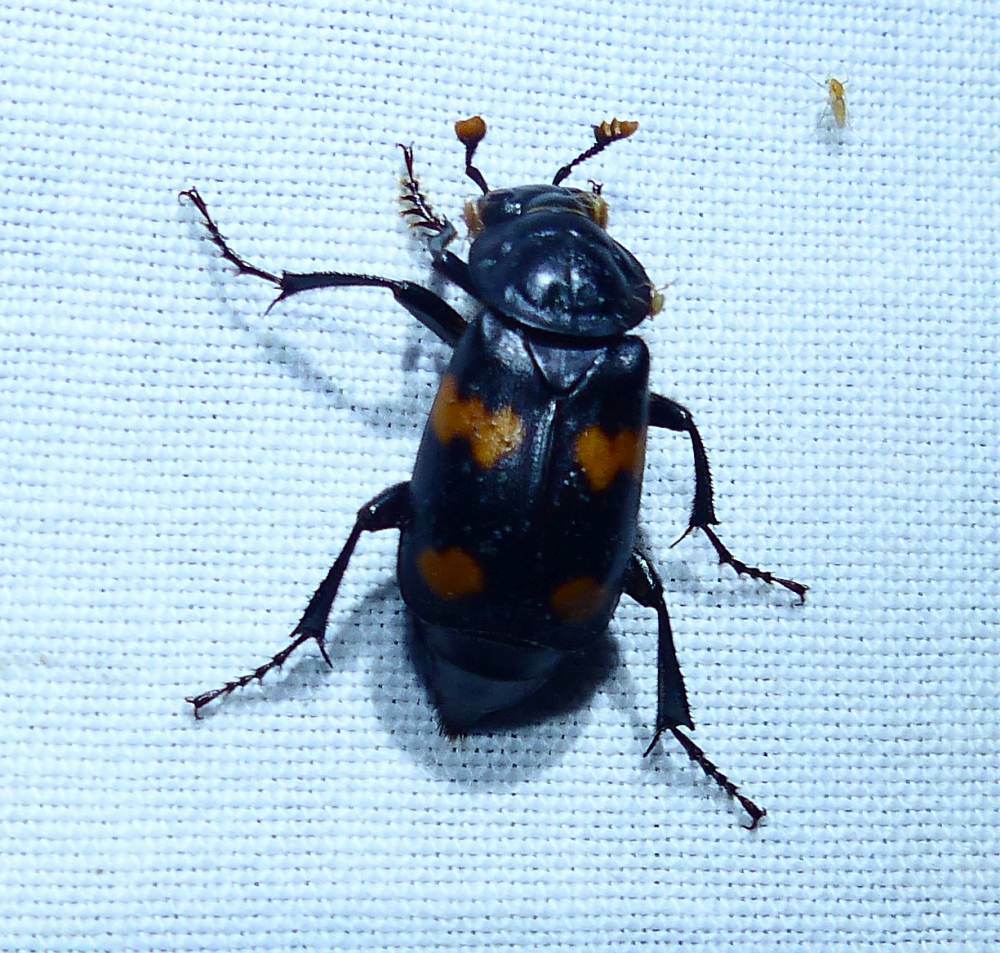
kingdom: Animalia
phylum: Arthropoda
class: Insecta
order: Coleoptera
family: Staphylinidae
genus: Nicrophorus
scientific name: Nicrophorus orbicollis
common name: Roundneck sexton beetle
